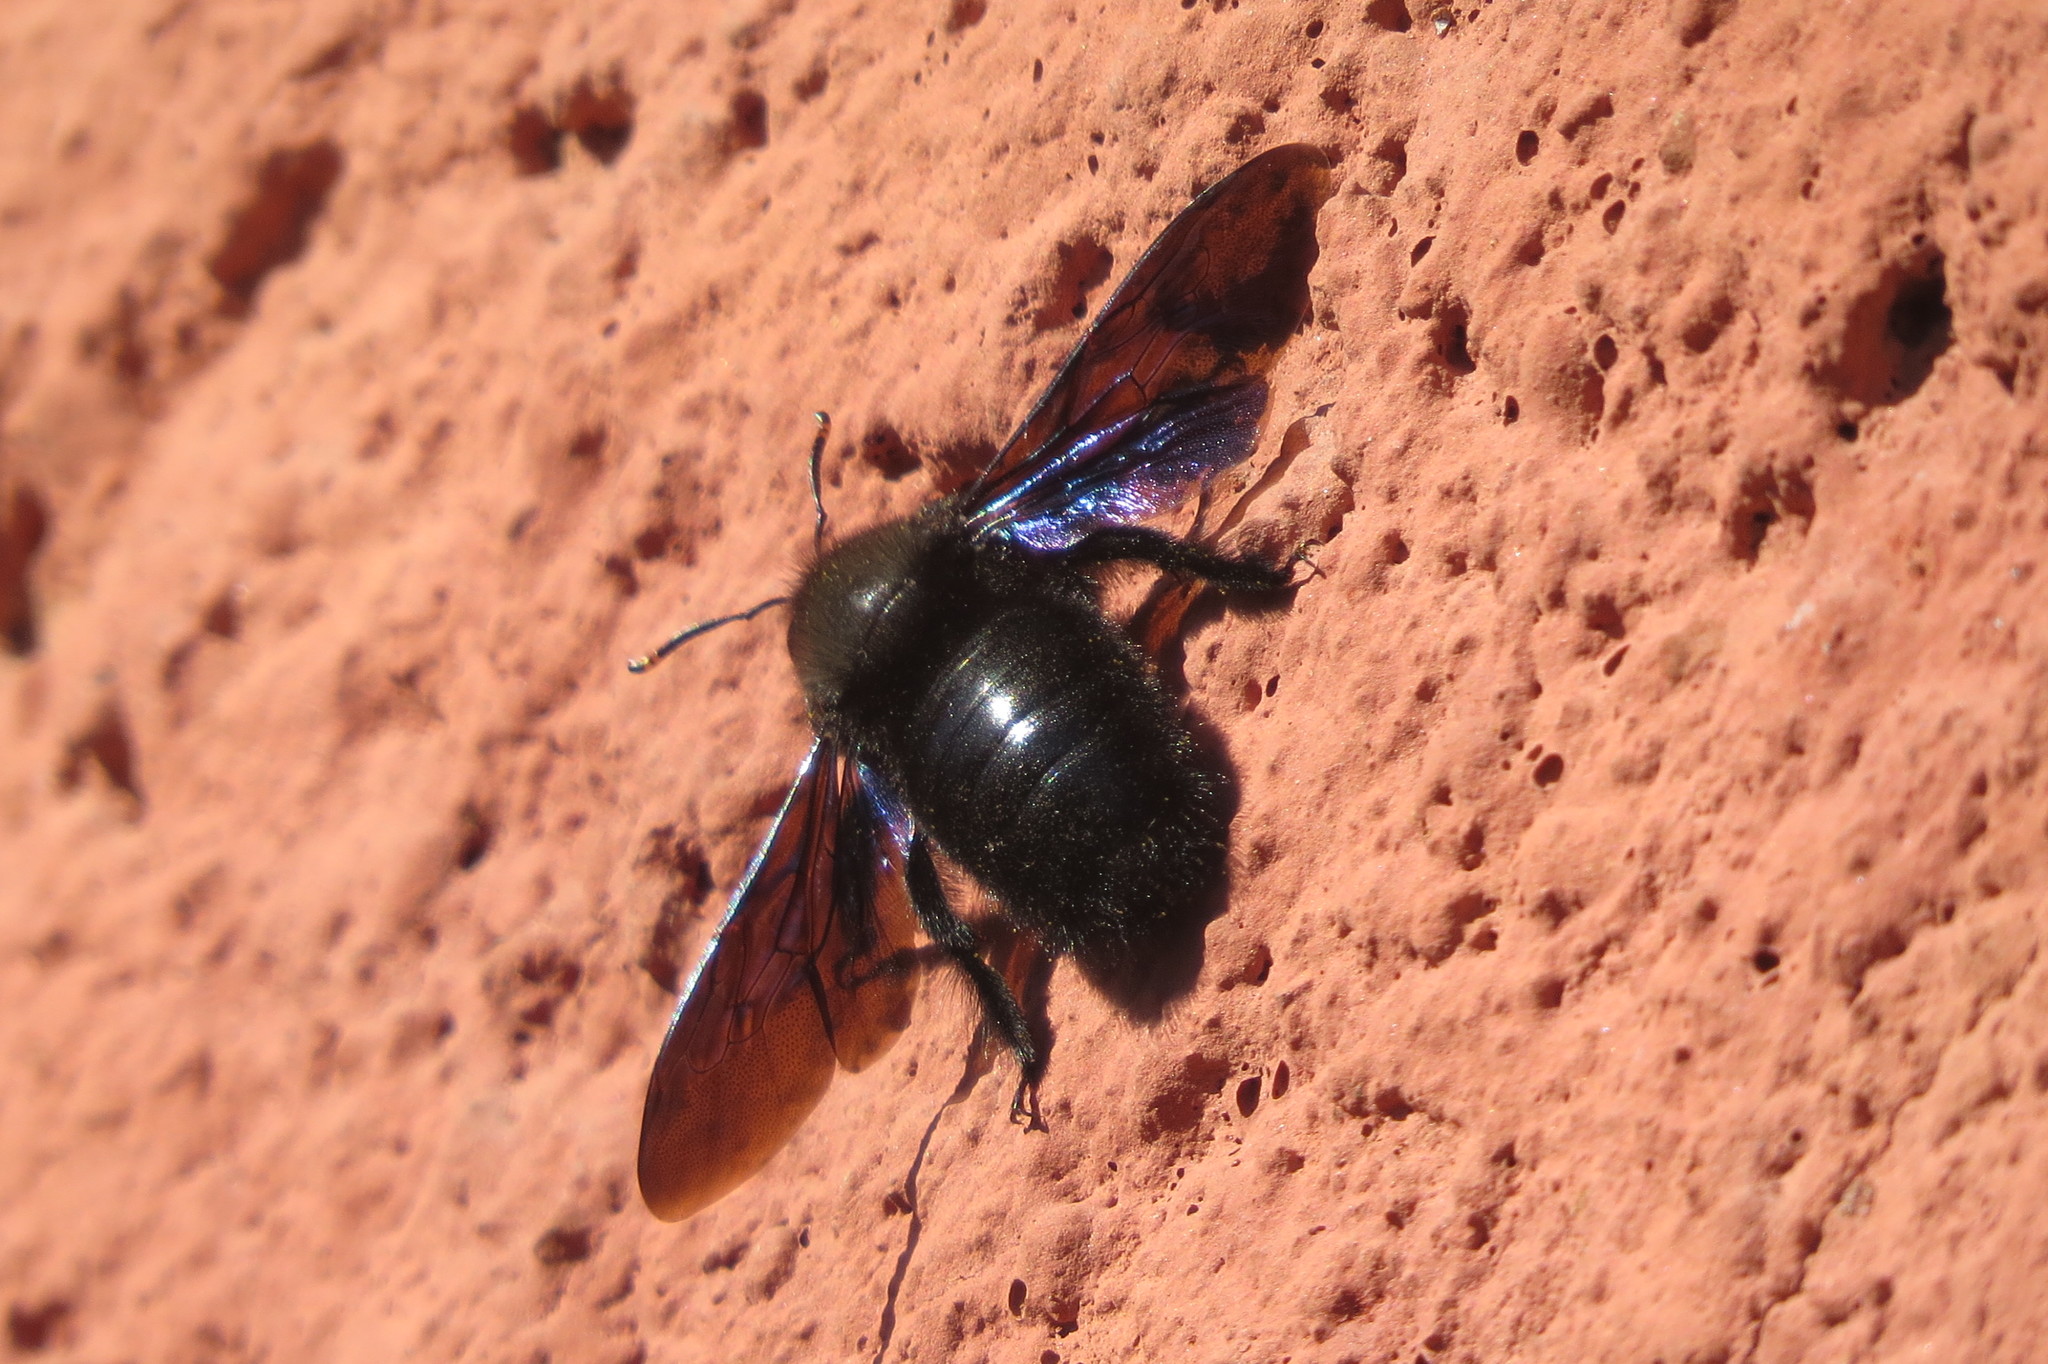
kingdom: Animalia
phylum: Arthropoda
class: Insecta
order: Hymenoptera
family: Apidae
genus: Xylocopa
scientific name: Xylocopa violacea
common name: Violet carpenter bee
